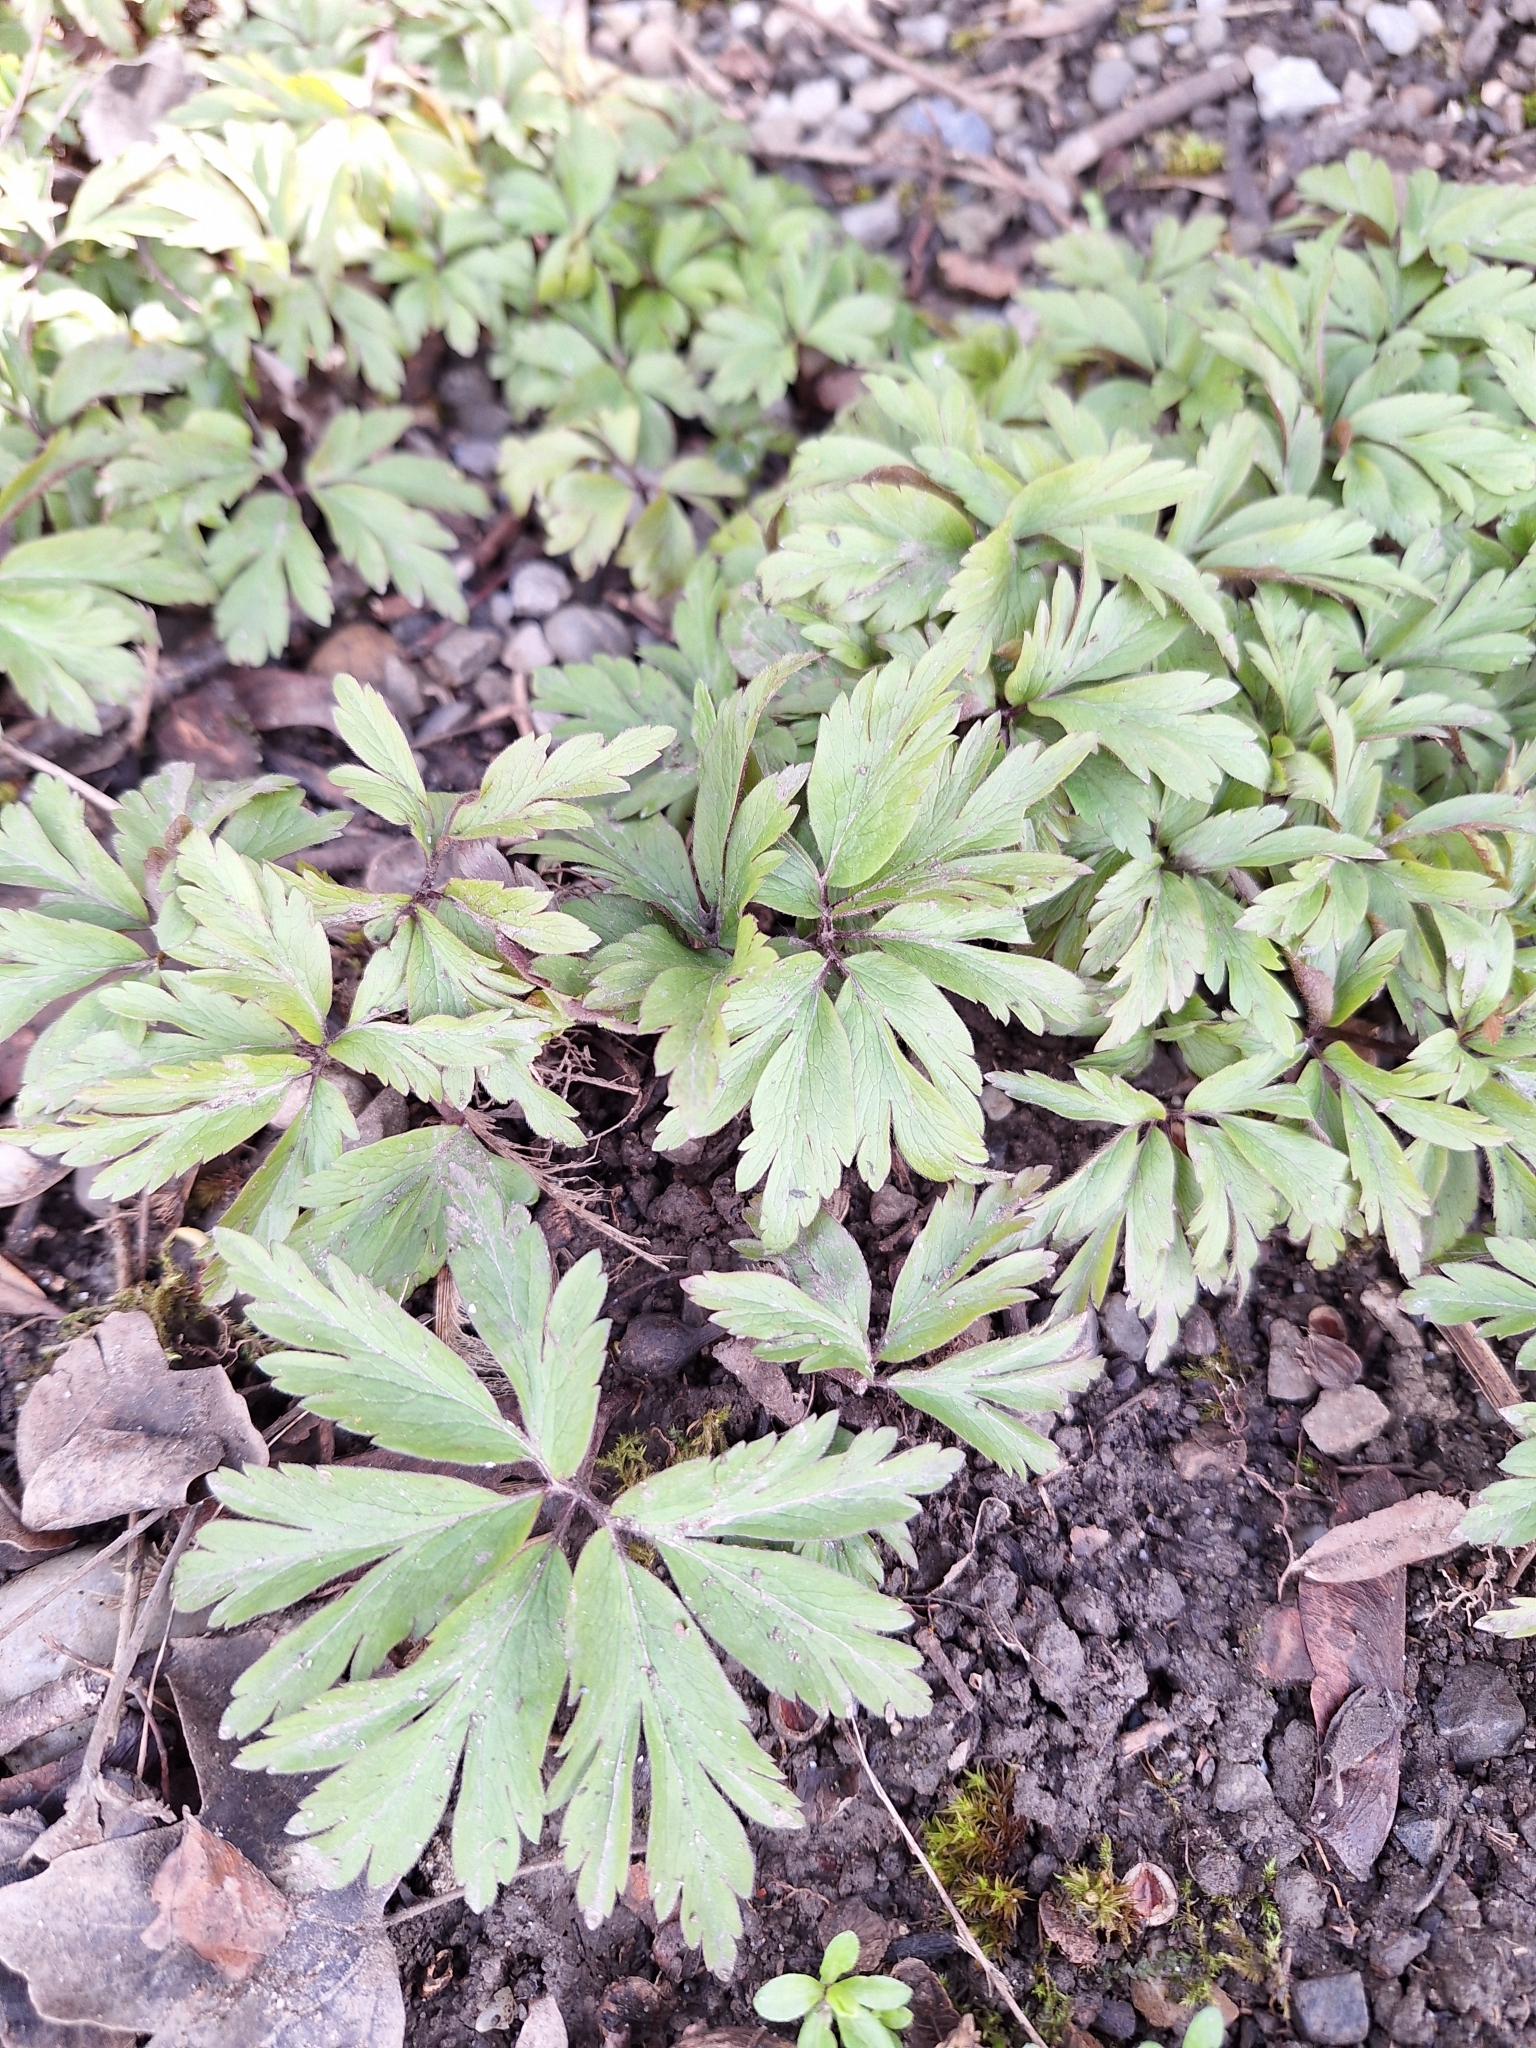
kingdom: Plantae
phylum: Tracheophyta
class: Magnoliopsida
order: Ranunculales
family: Ranunculaceae
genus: Anemone
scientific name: Anemone nemorosa
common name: Wood anemone
